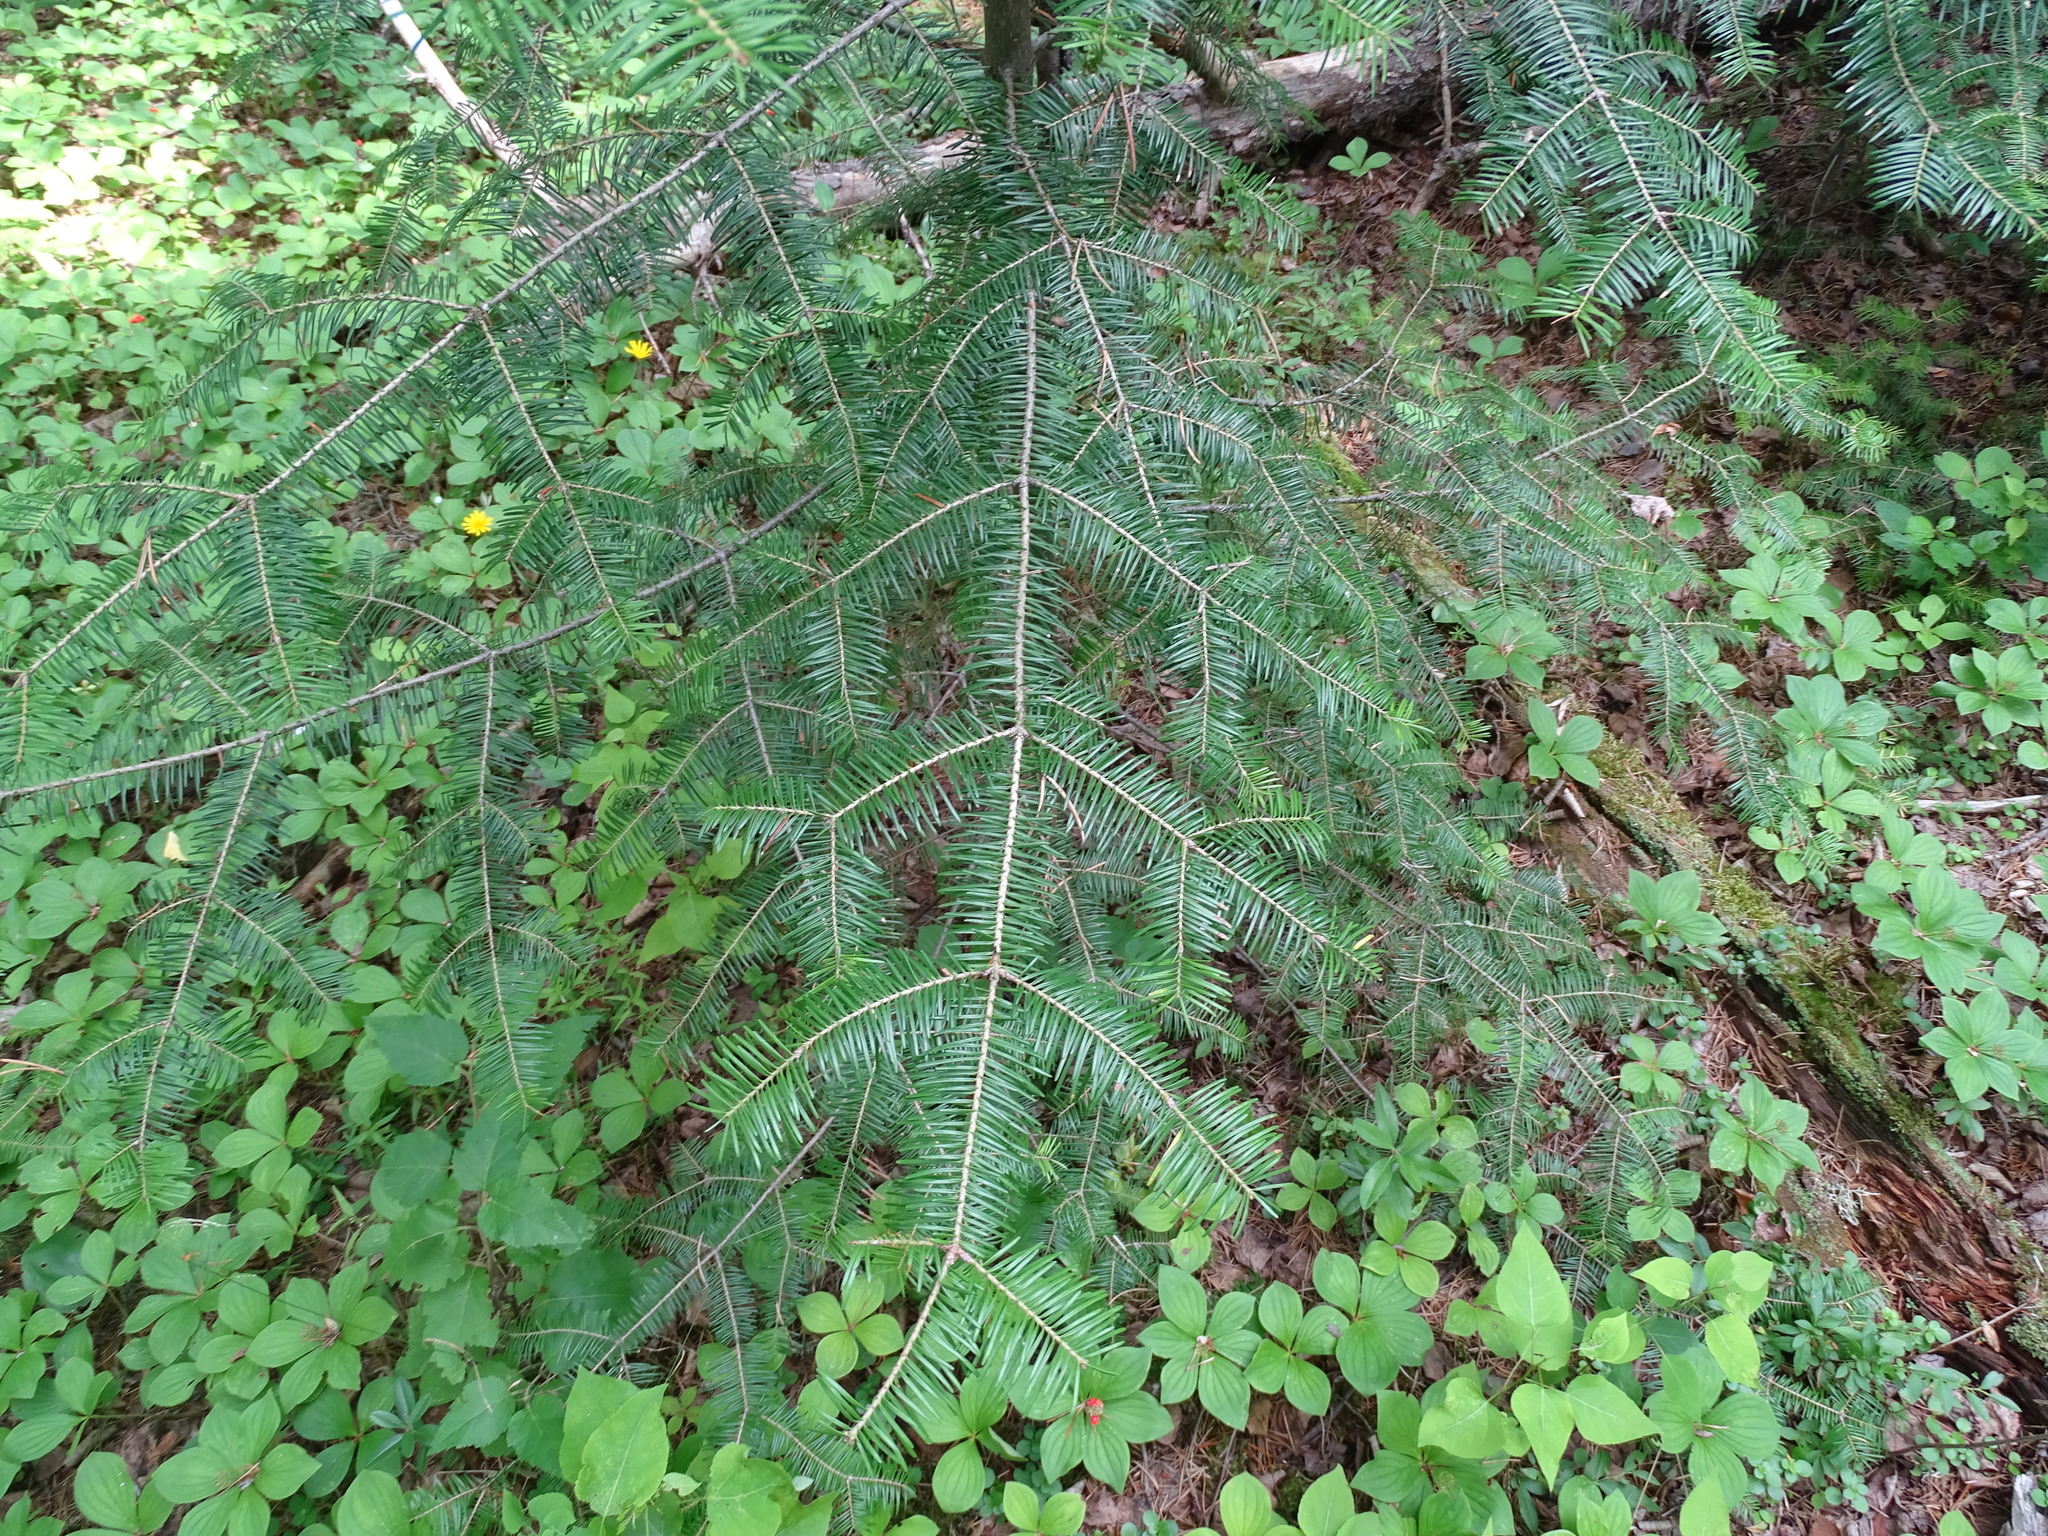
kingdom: Plantae
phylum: Tracheophyta
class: Pinopsida
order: Pinales
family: Pinaceae
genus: Abies
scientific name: Abies balsamea
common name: Balsam fir
